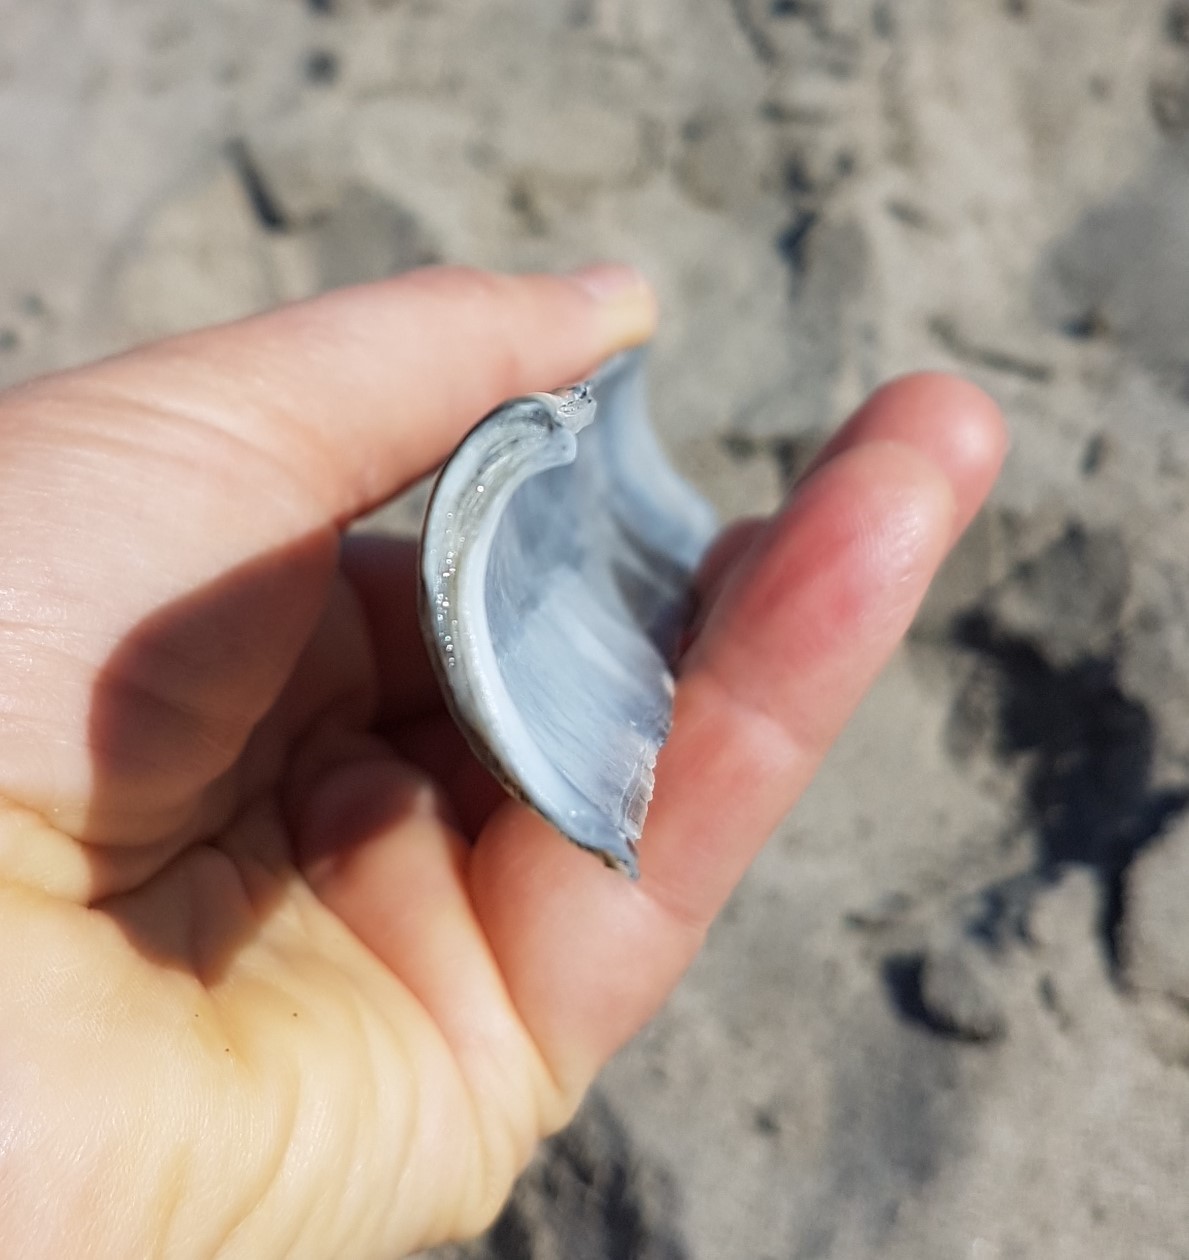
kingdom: Animalia
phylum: Mollusca
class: Bivalvia
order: Adapedonta
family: Solenidae
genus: Solen
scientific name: Solen marginatus
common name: Grooved razor shell
